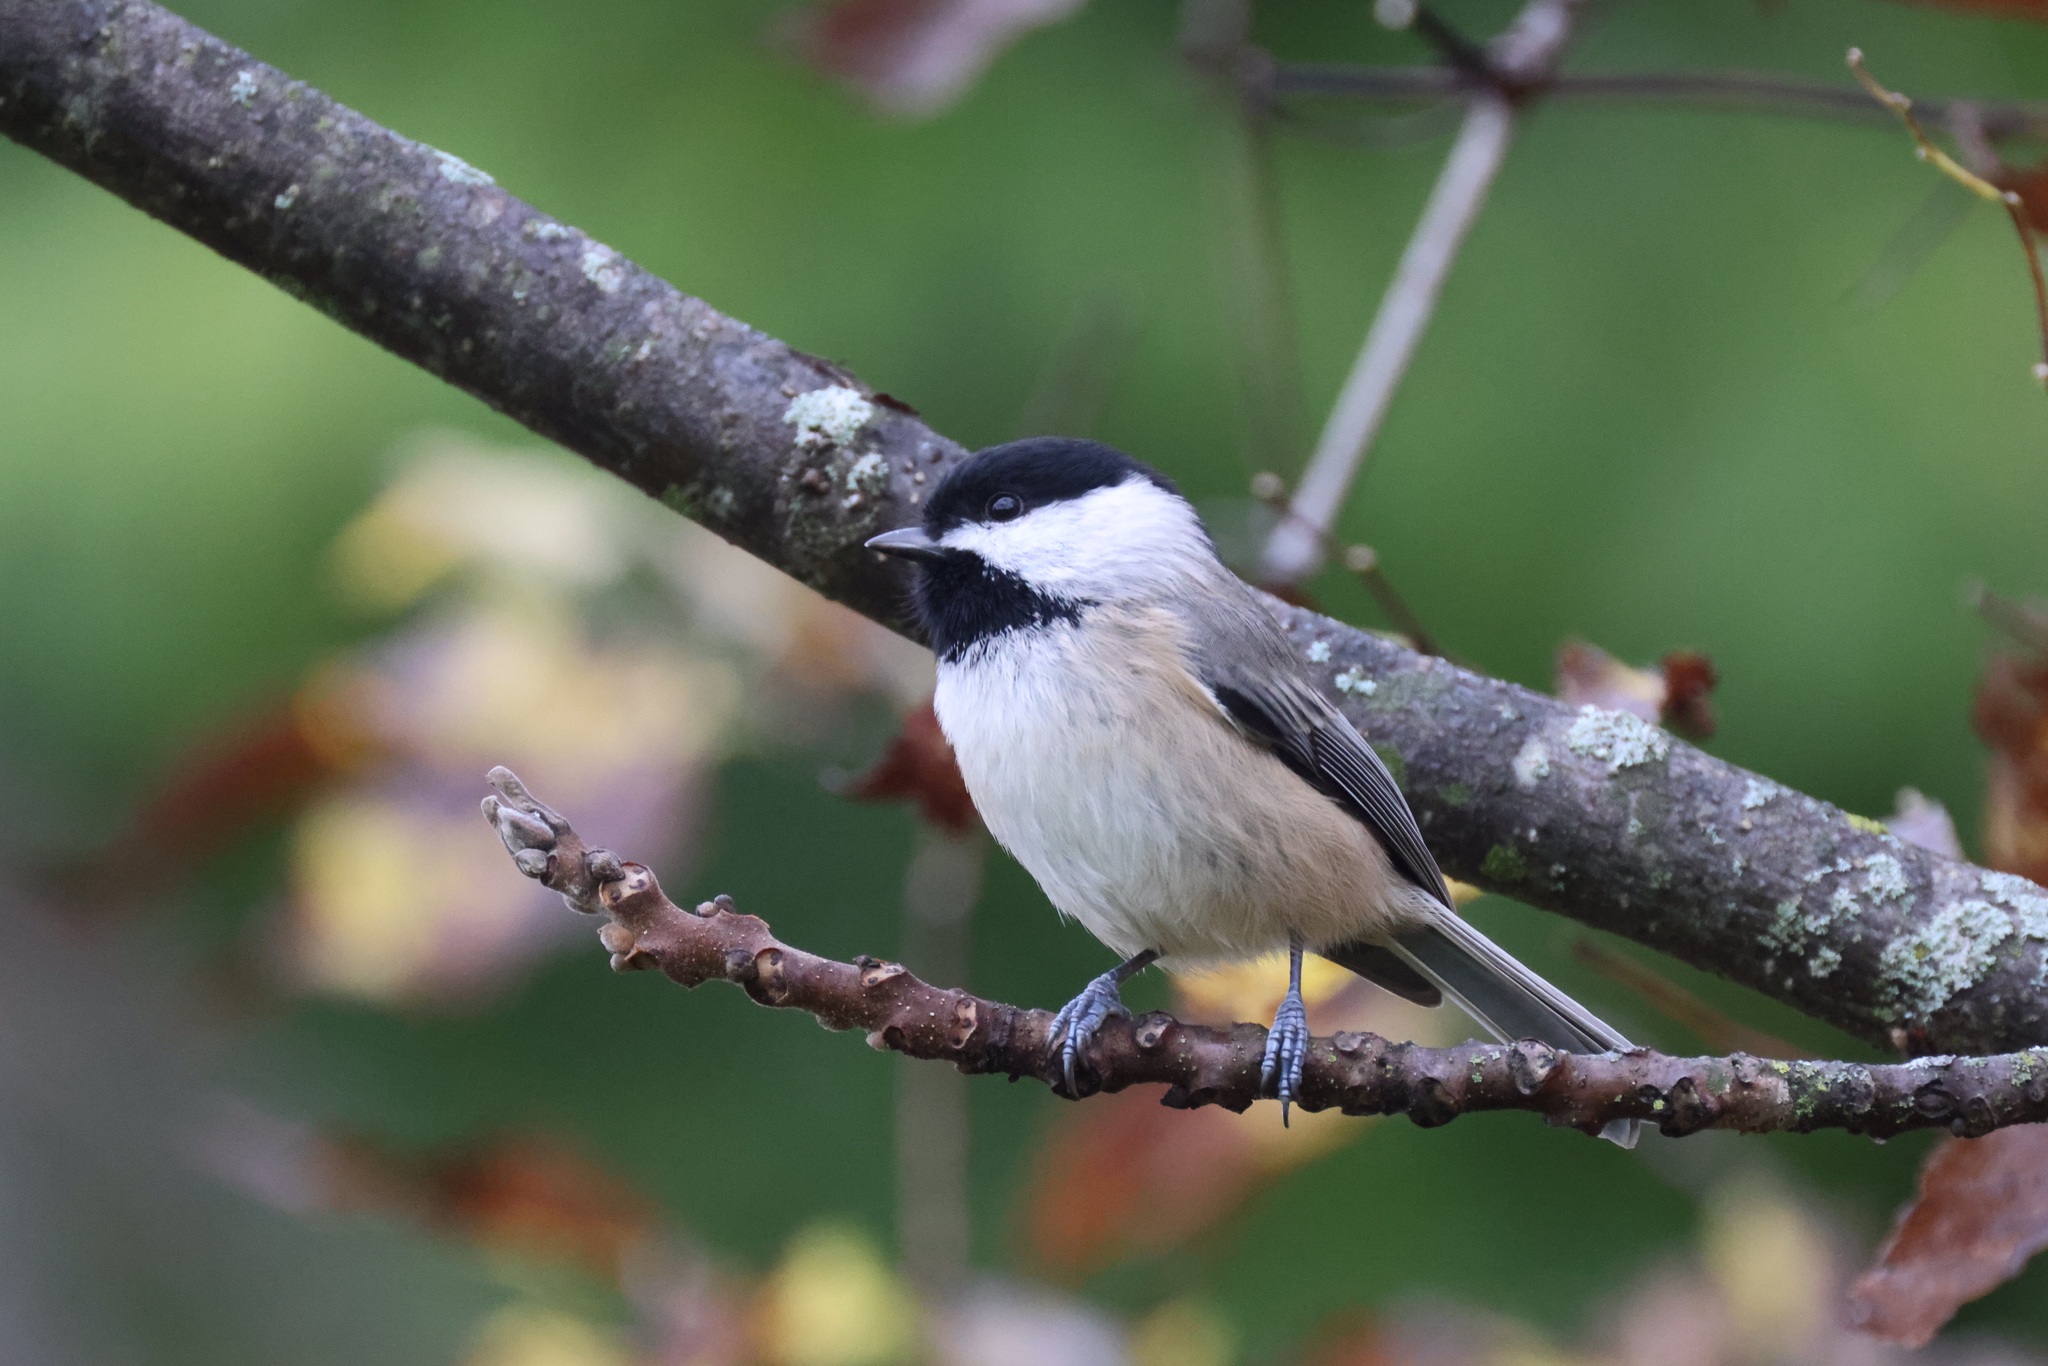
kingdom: Animalia
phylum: Chordata
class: Aves
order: Passeriformes
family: Paridae
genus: Poecile
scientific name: Poecile carolinensis
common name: Carolina chickadee
